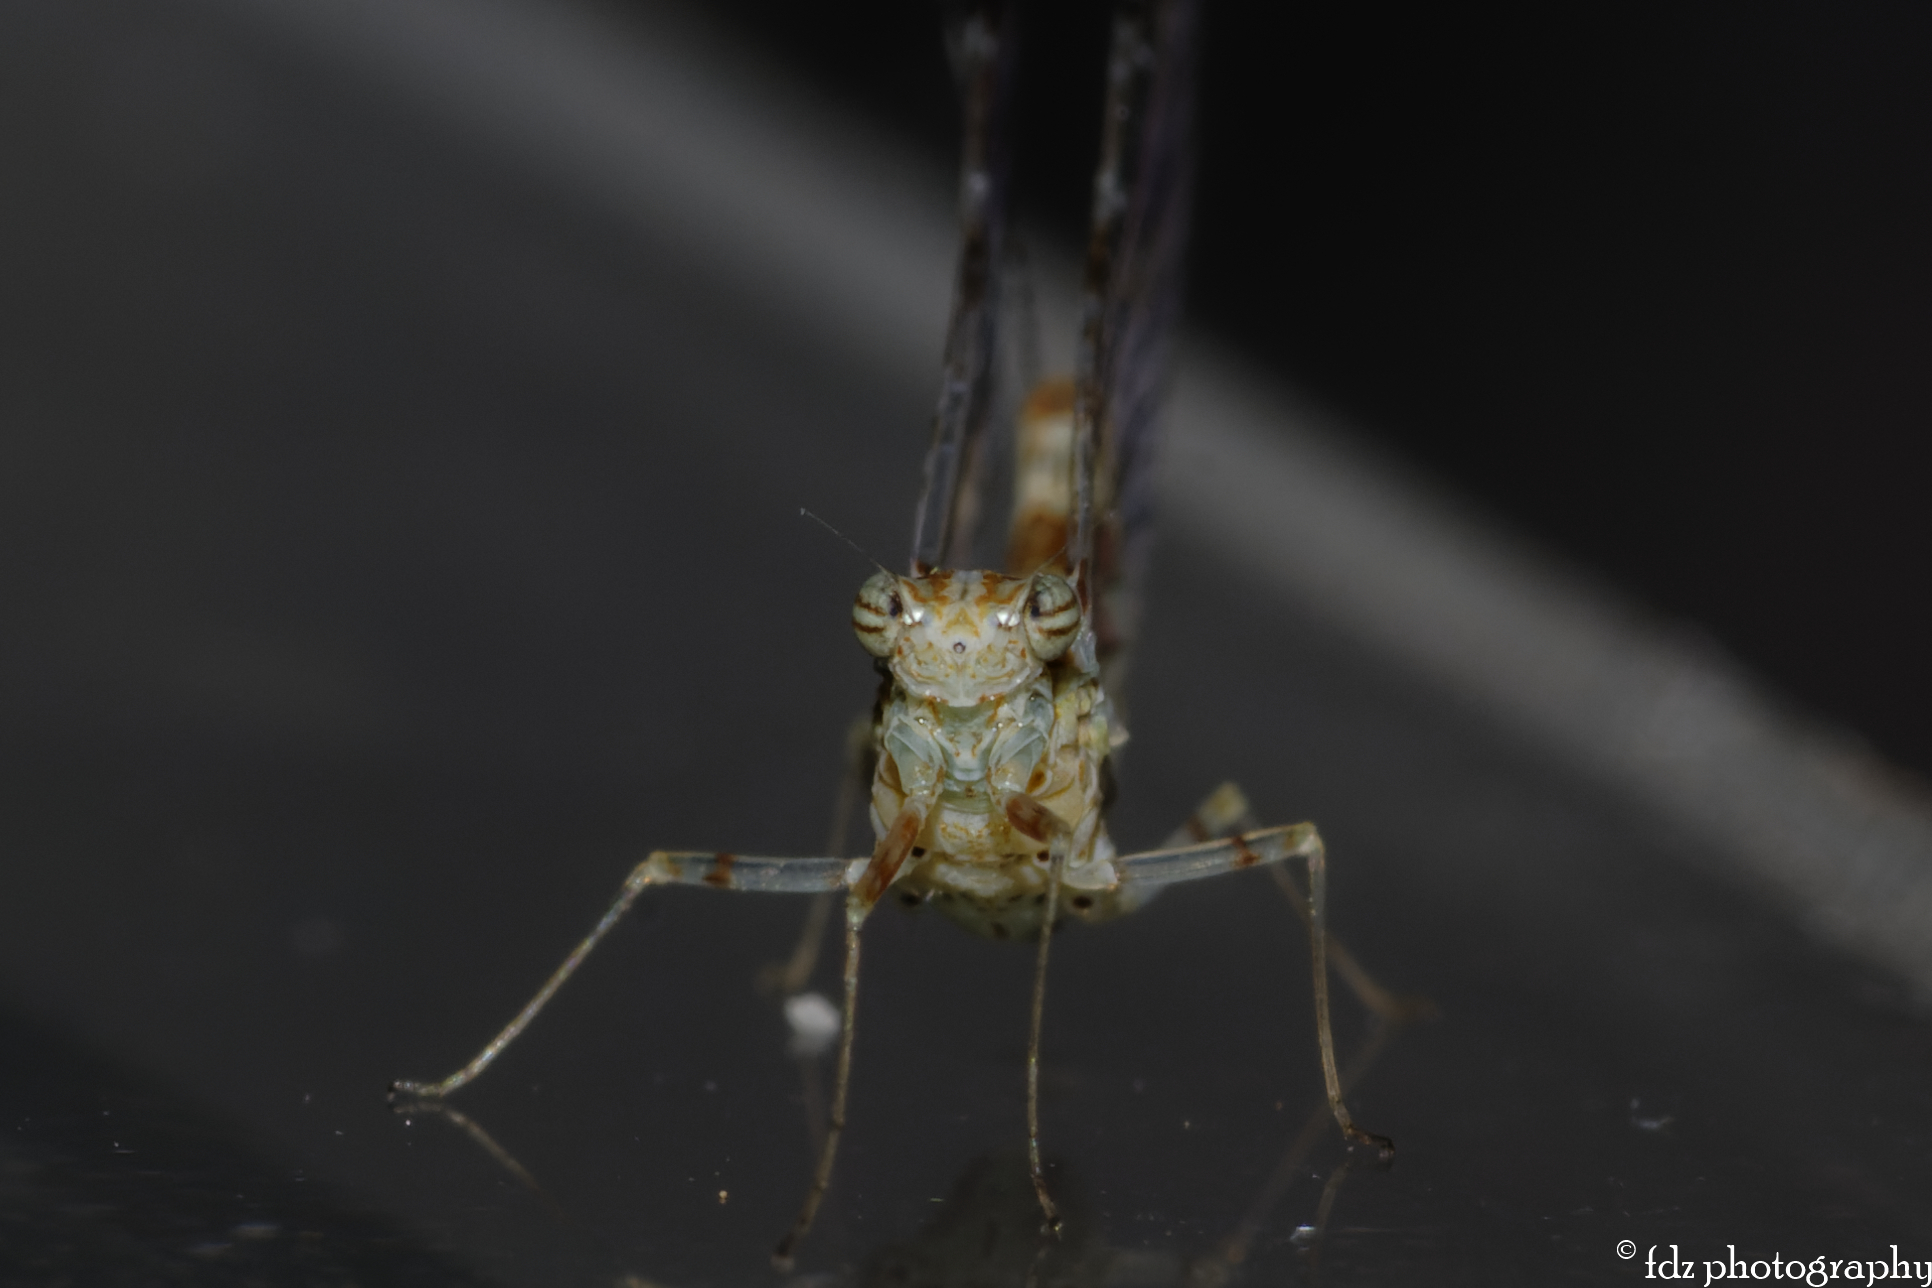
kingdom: Animalia
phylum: Arthropoda
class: Insecta
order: Ephemeroptera
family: Baetidae
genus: Cloeon
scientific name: Cloeon dipterum
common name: Pond olive
